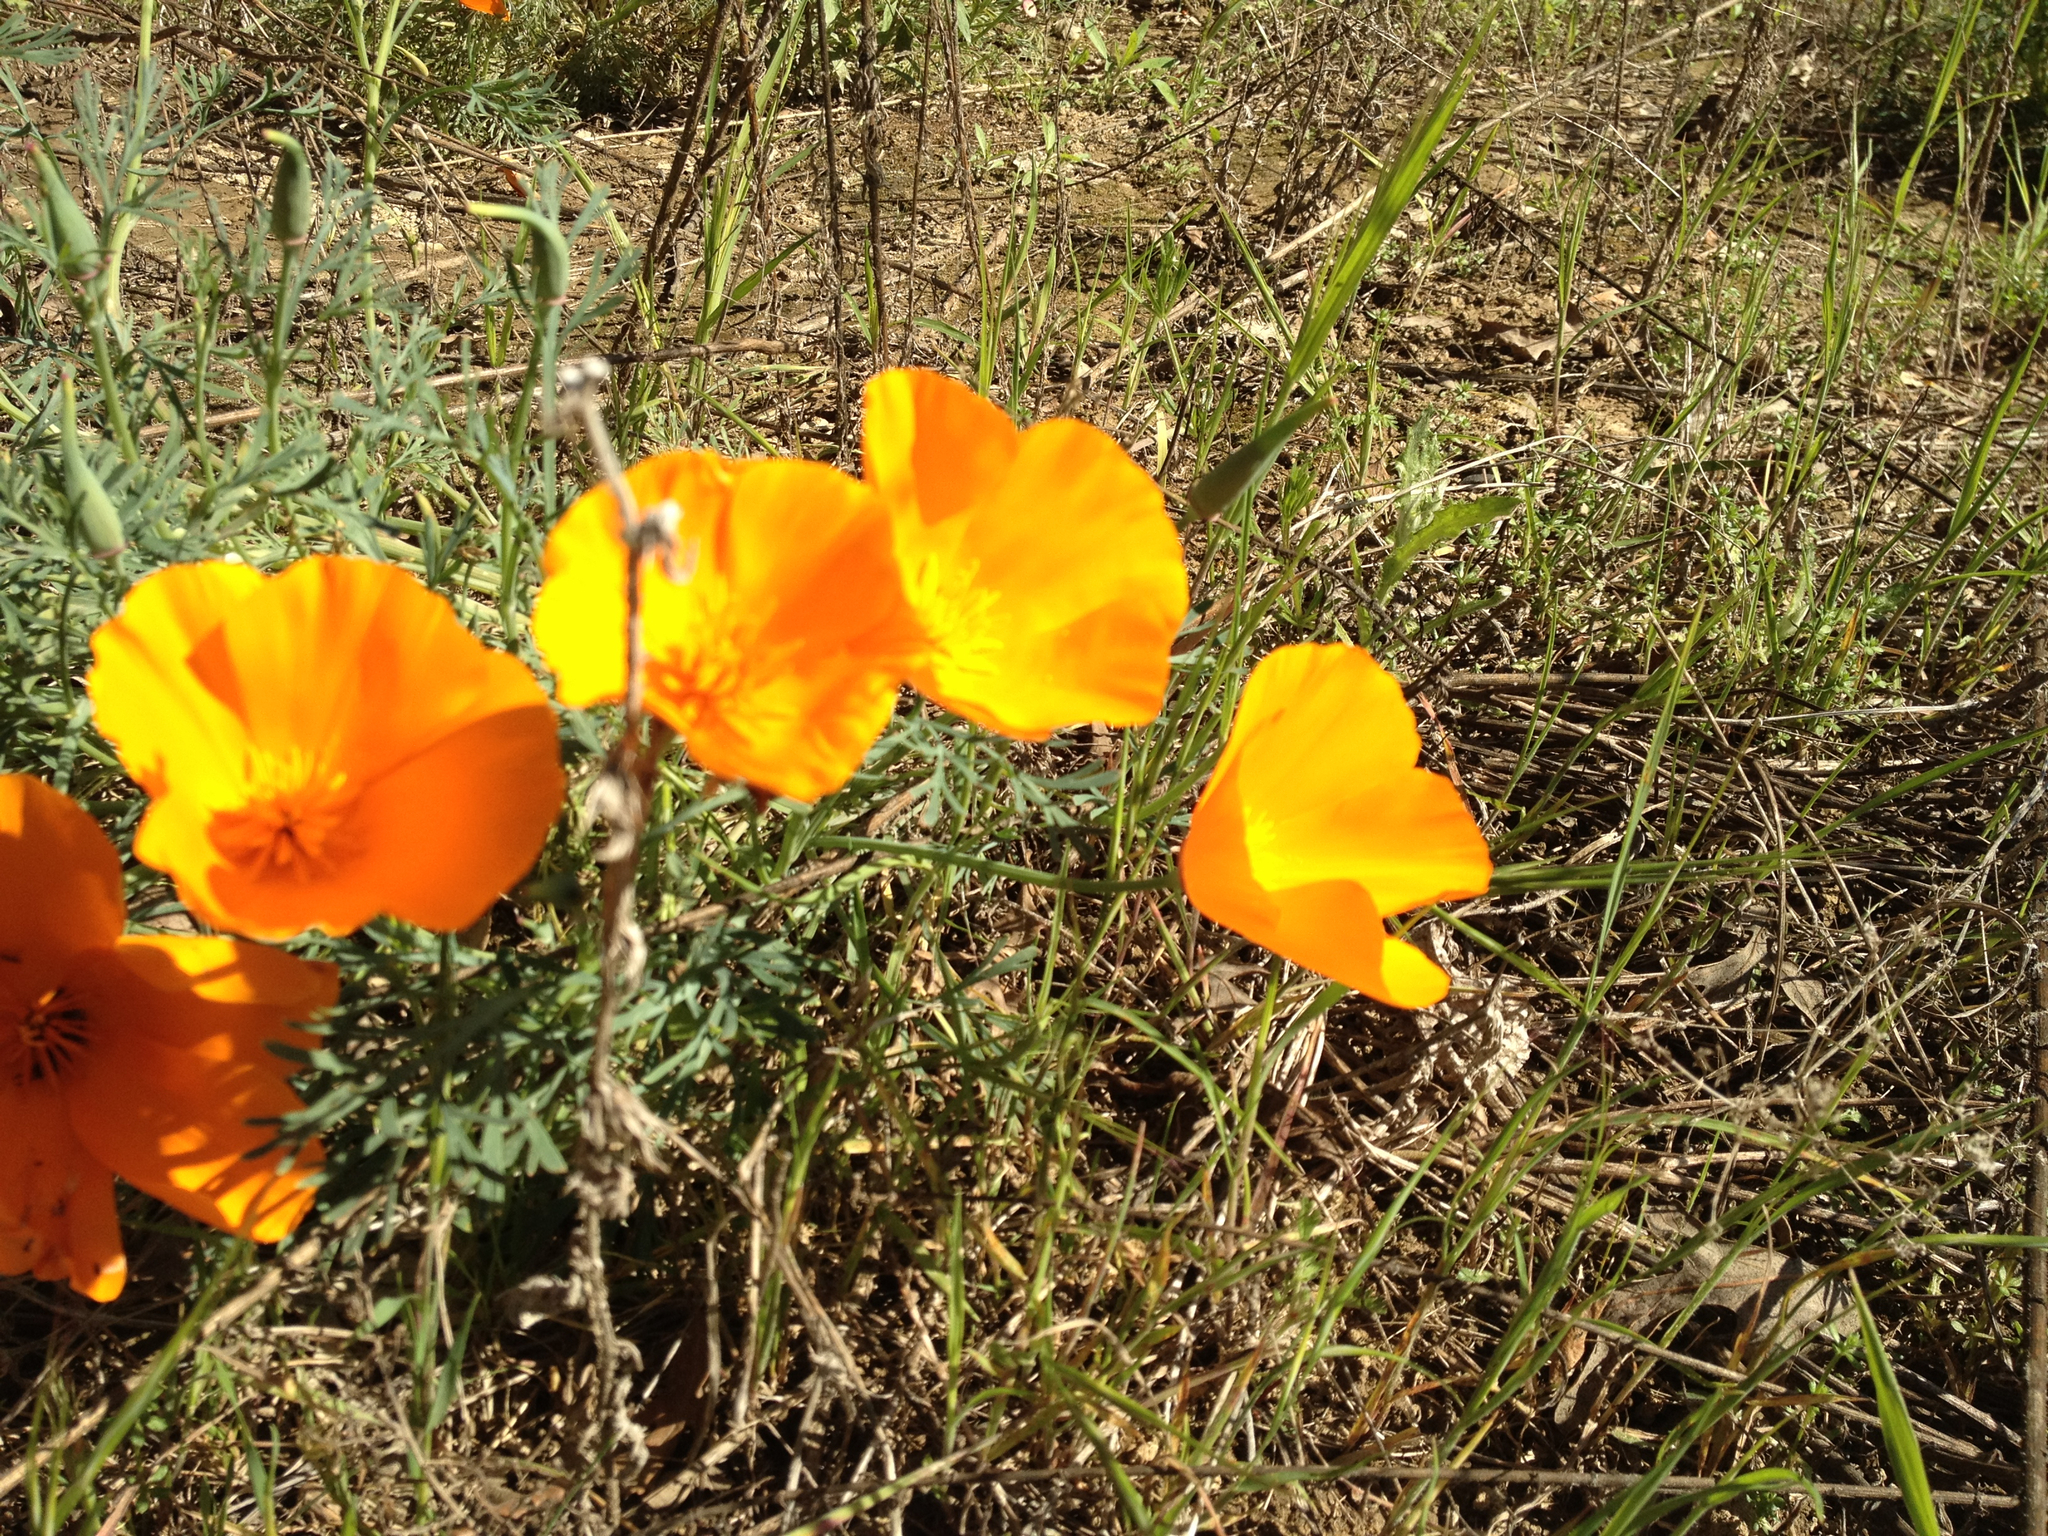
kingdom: Plantae
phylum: Tracheophyta
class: Magnoliopsida
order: Ranunculales
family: Papaveraceae
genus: Eschscholzia
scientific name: Eschscholzia californica
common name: California poppy
